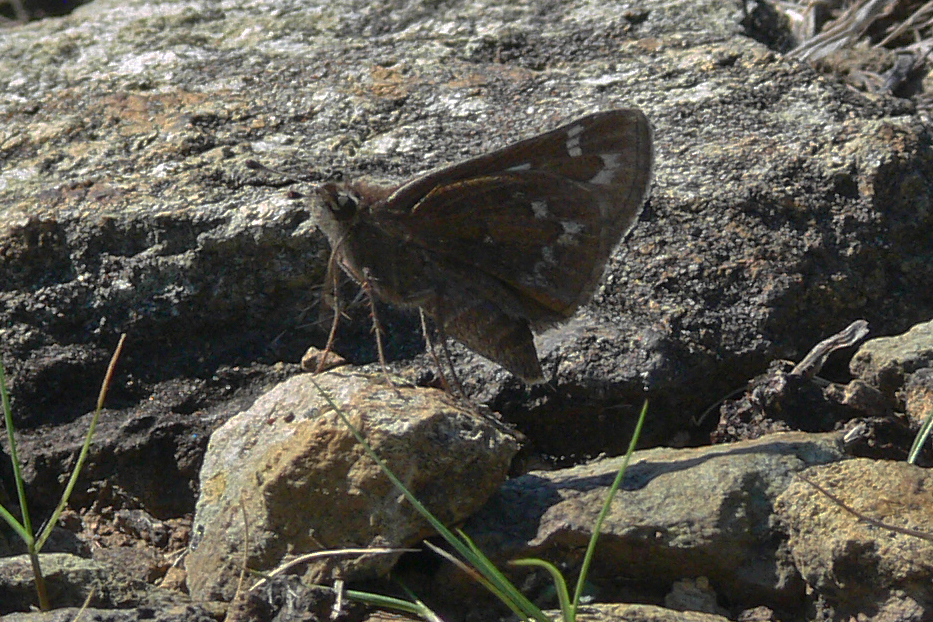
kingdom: Animalia
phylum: Arthropoda
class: Insecta
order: Lepidoptera
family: Hesperiidae
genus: Hesperia
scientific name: Hesperia metea
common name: Cobweb skipper
